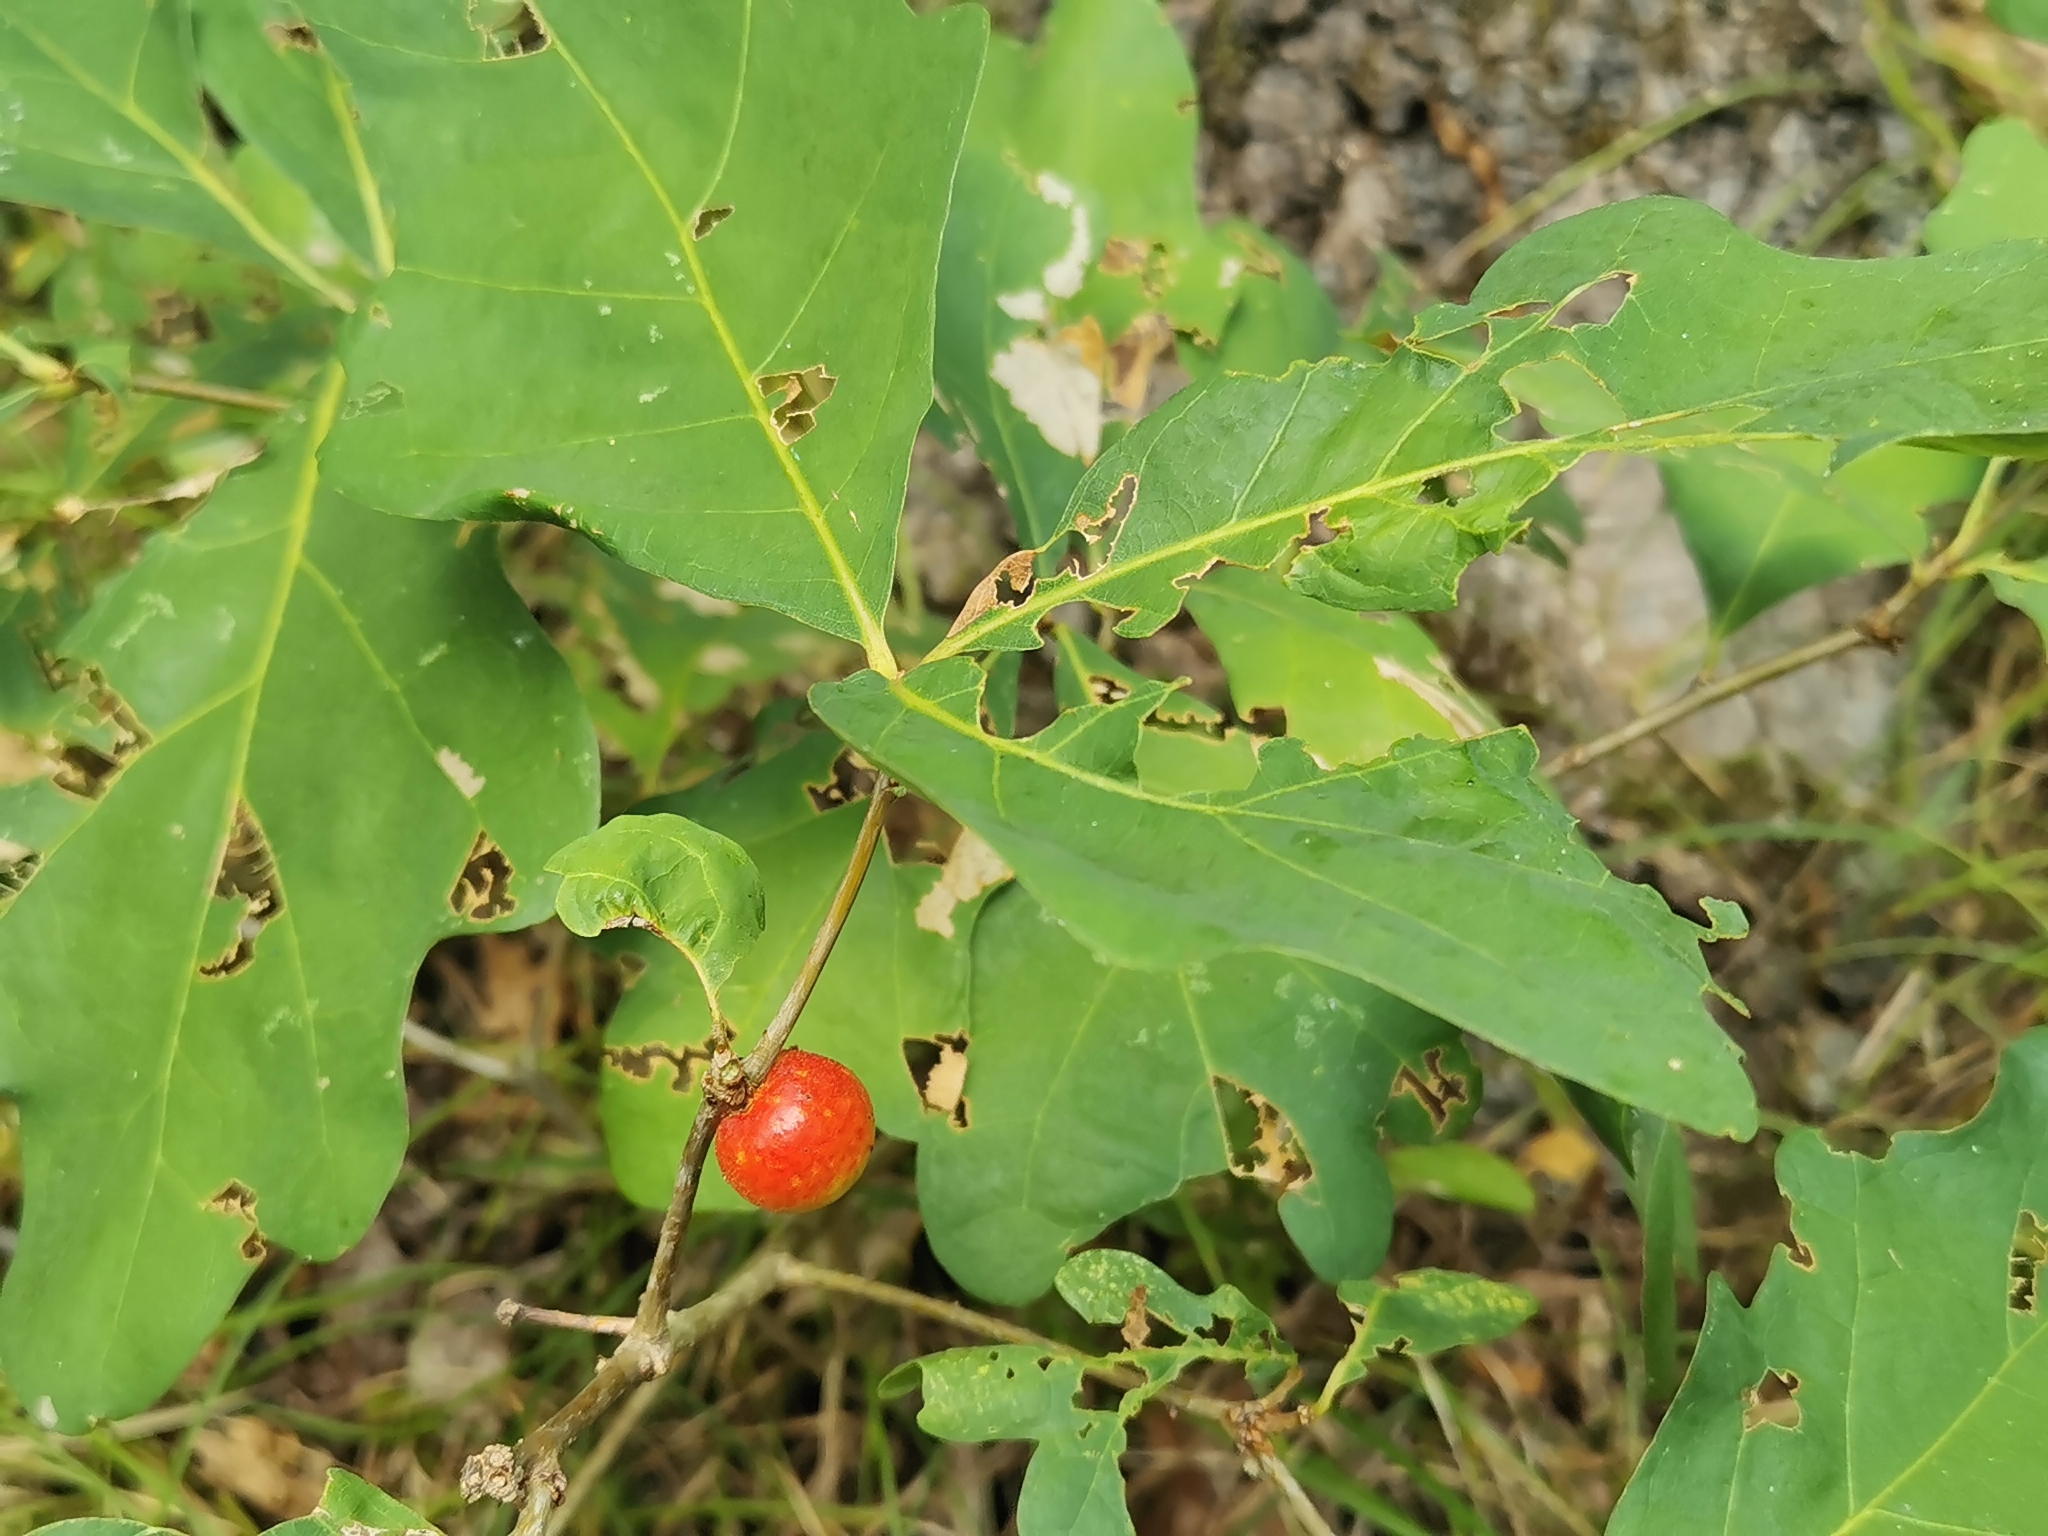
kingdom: Animalia
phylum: Arthropoda
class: Insecta
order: Hymenoptera
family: Cynipidae
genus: Disholcaspis
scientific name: Disholcaspis quercusglobulus
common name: Round bullet gall wasp
